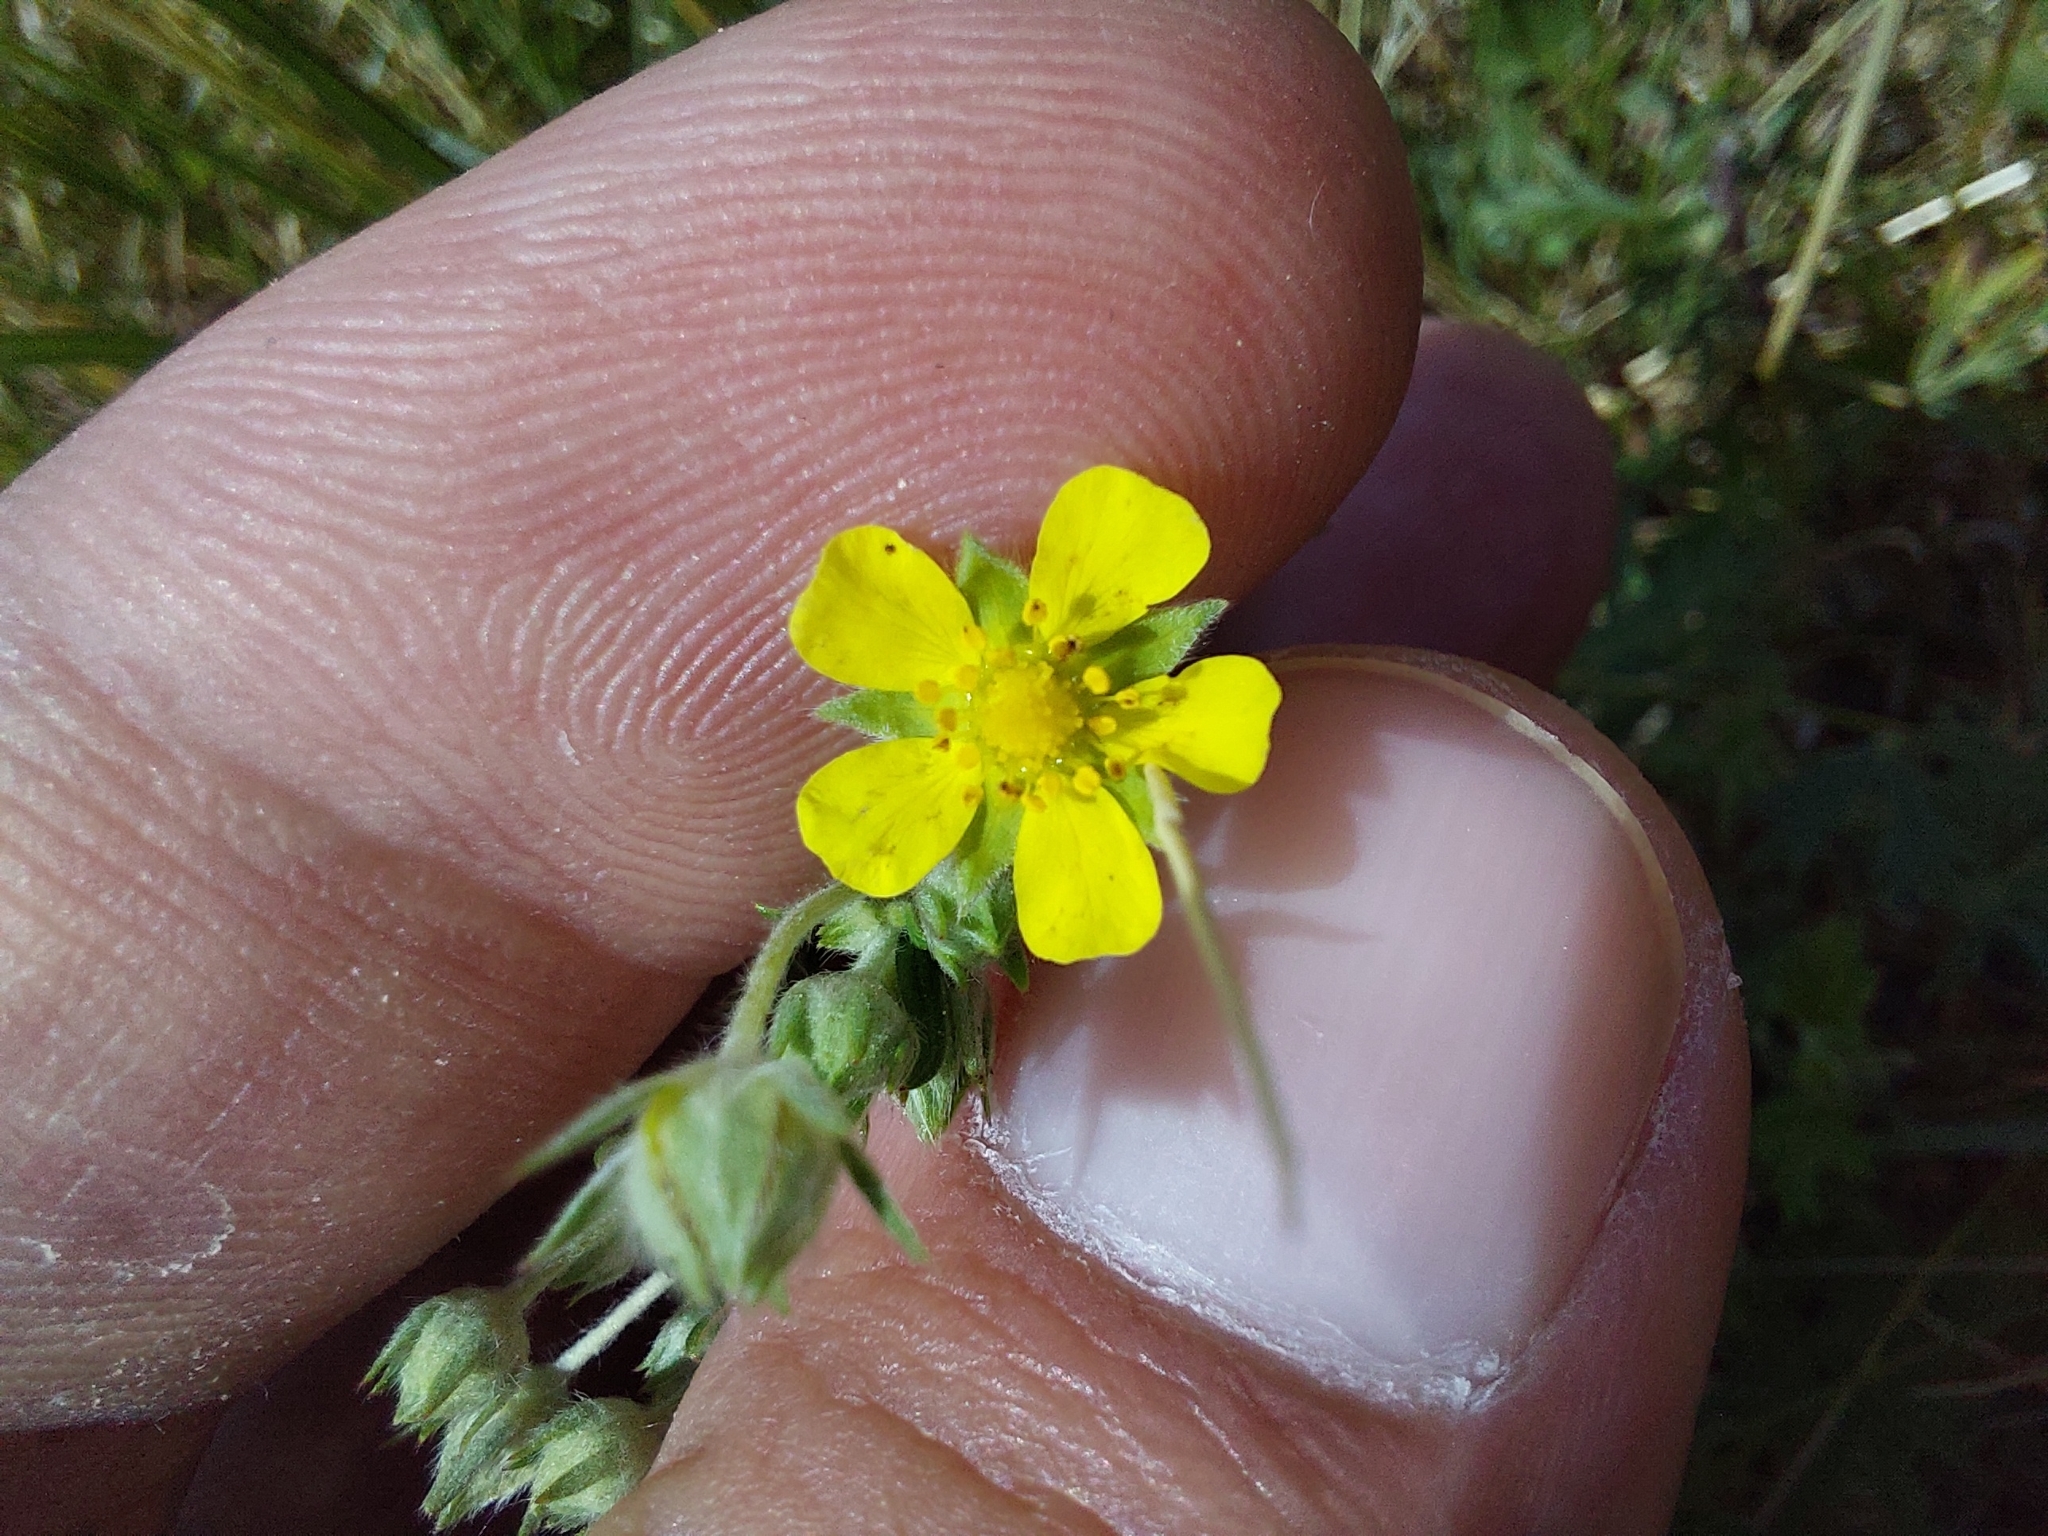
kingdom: Plantae
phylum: Tracheophyta
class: Magnoliopsida
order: Rosales
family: Rosaceae
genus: Potentilla
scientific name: Potentilla argentea
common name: Hoary cinquefoil
